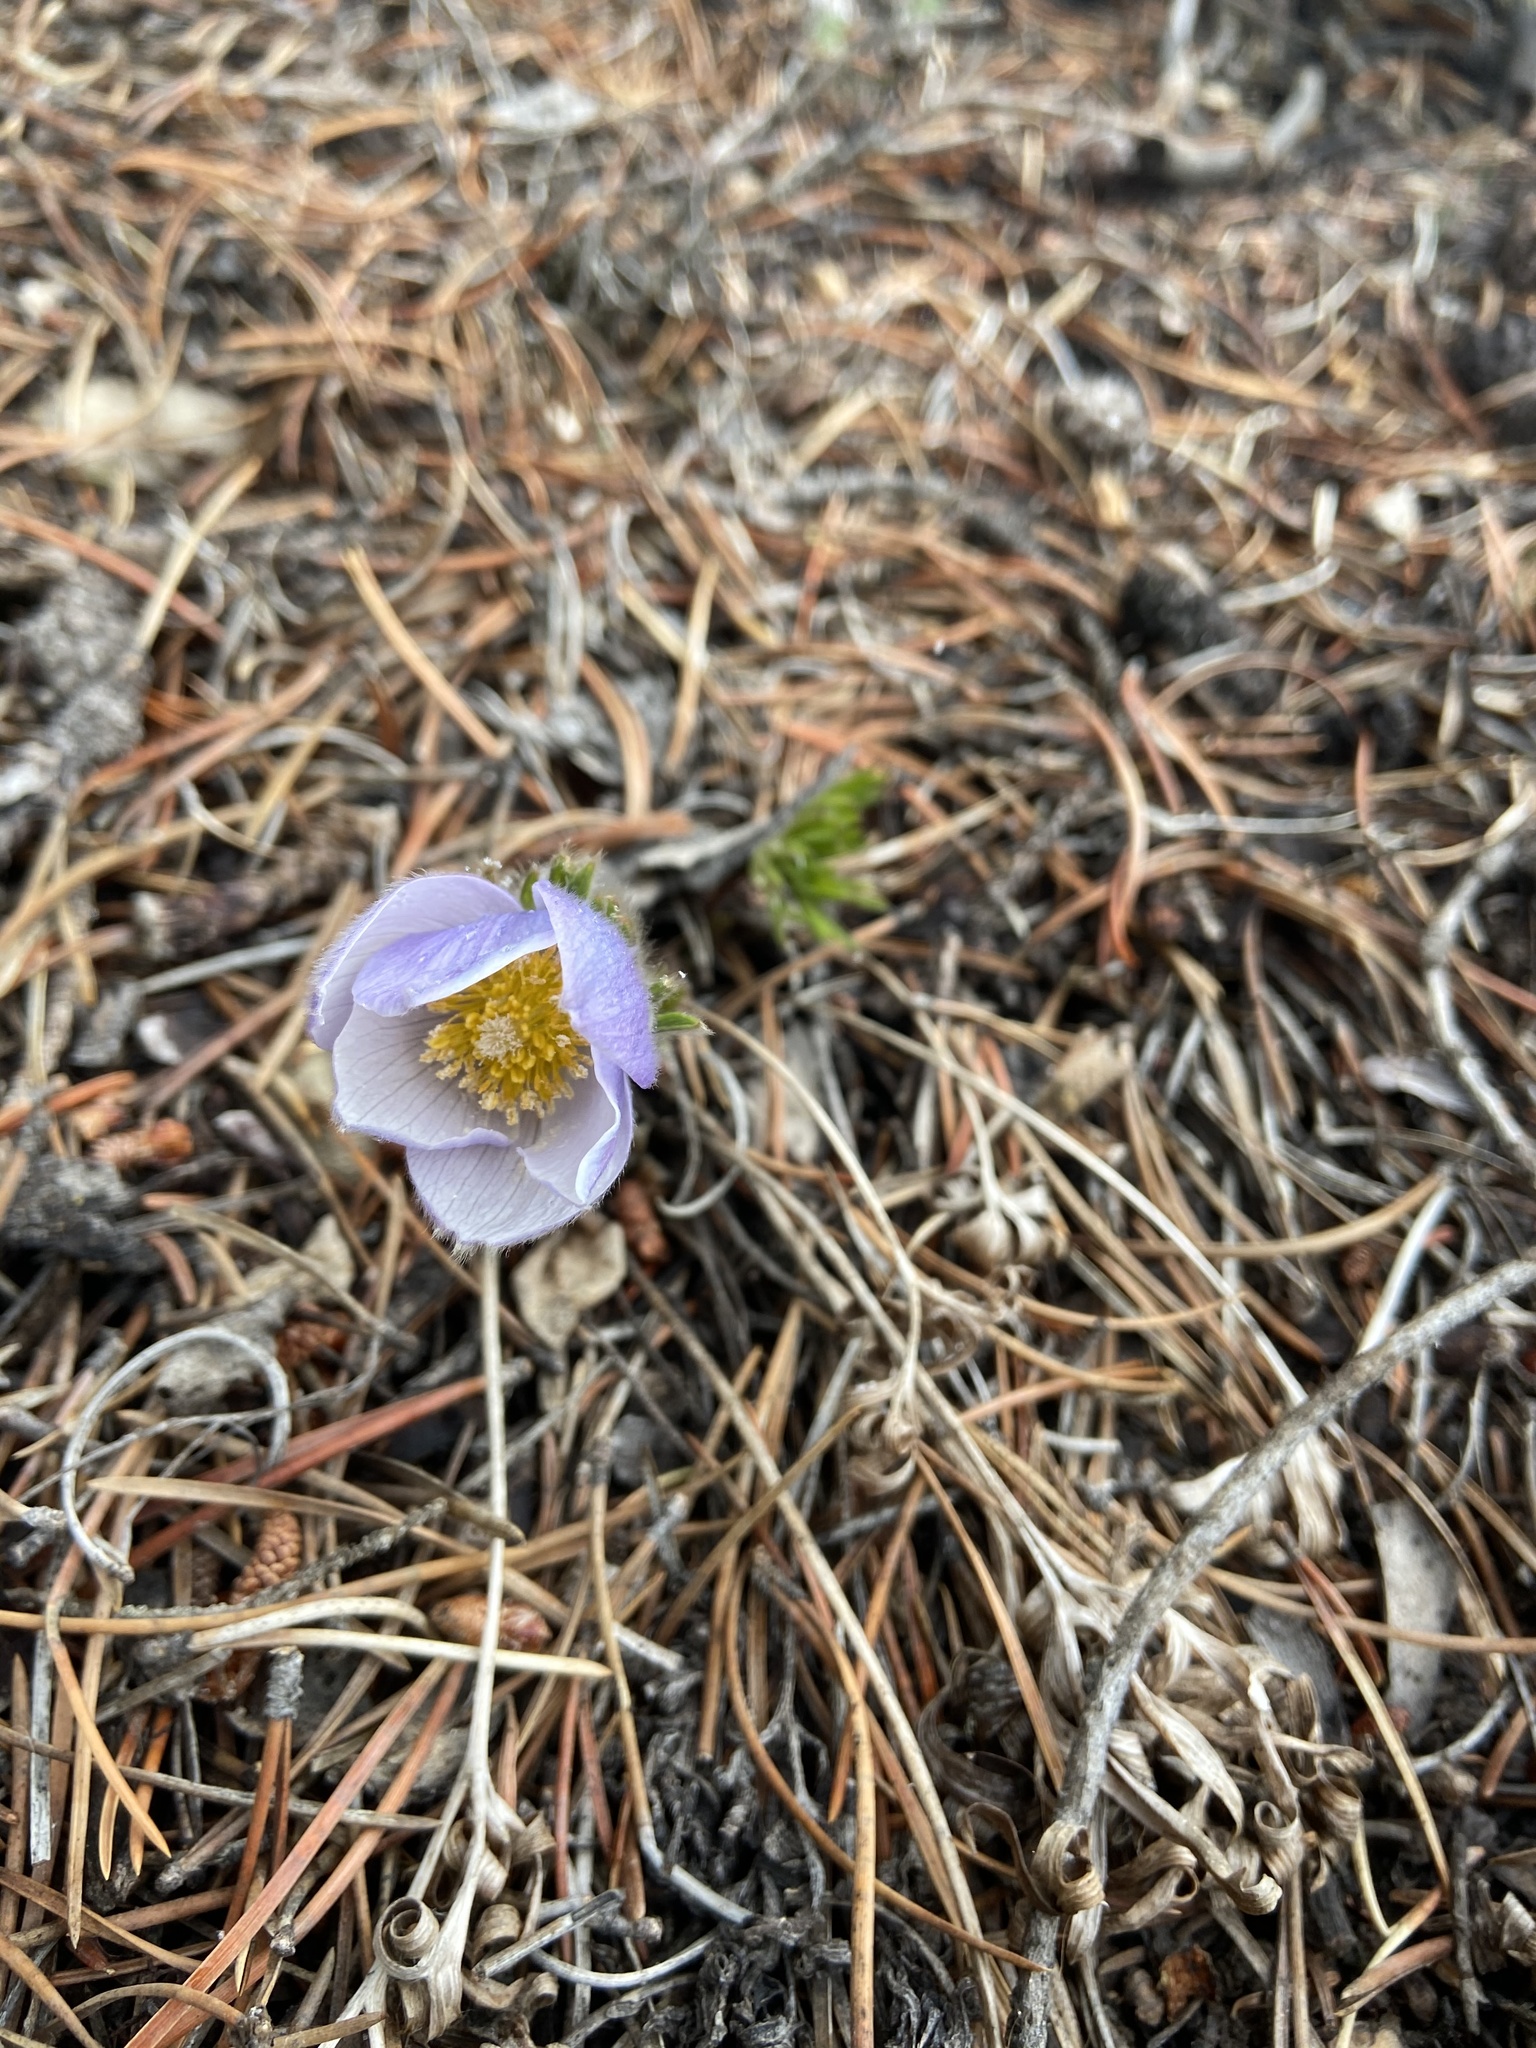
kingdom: Plantae
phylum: Tracheophyta
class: Magnoliopsida
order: Ranunculales
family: Ranunculaceae
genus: Pulsatilla
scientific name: Pulsatilla nuttalliana
